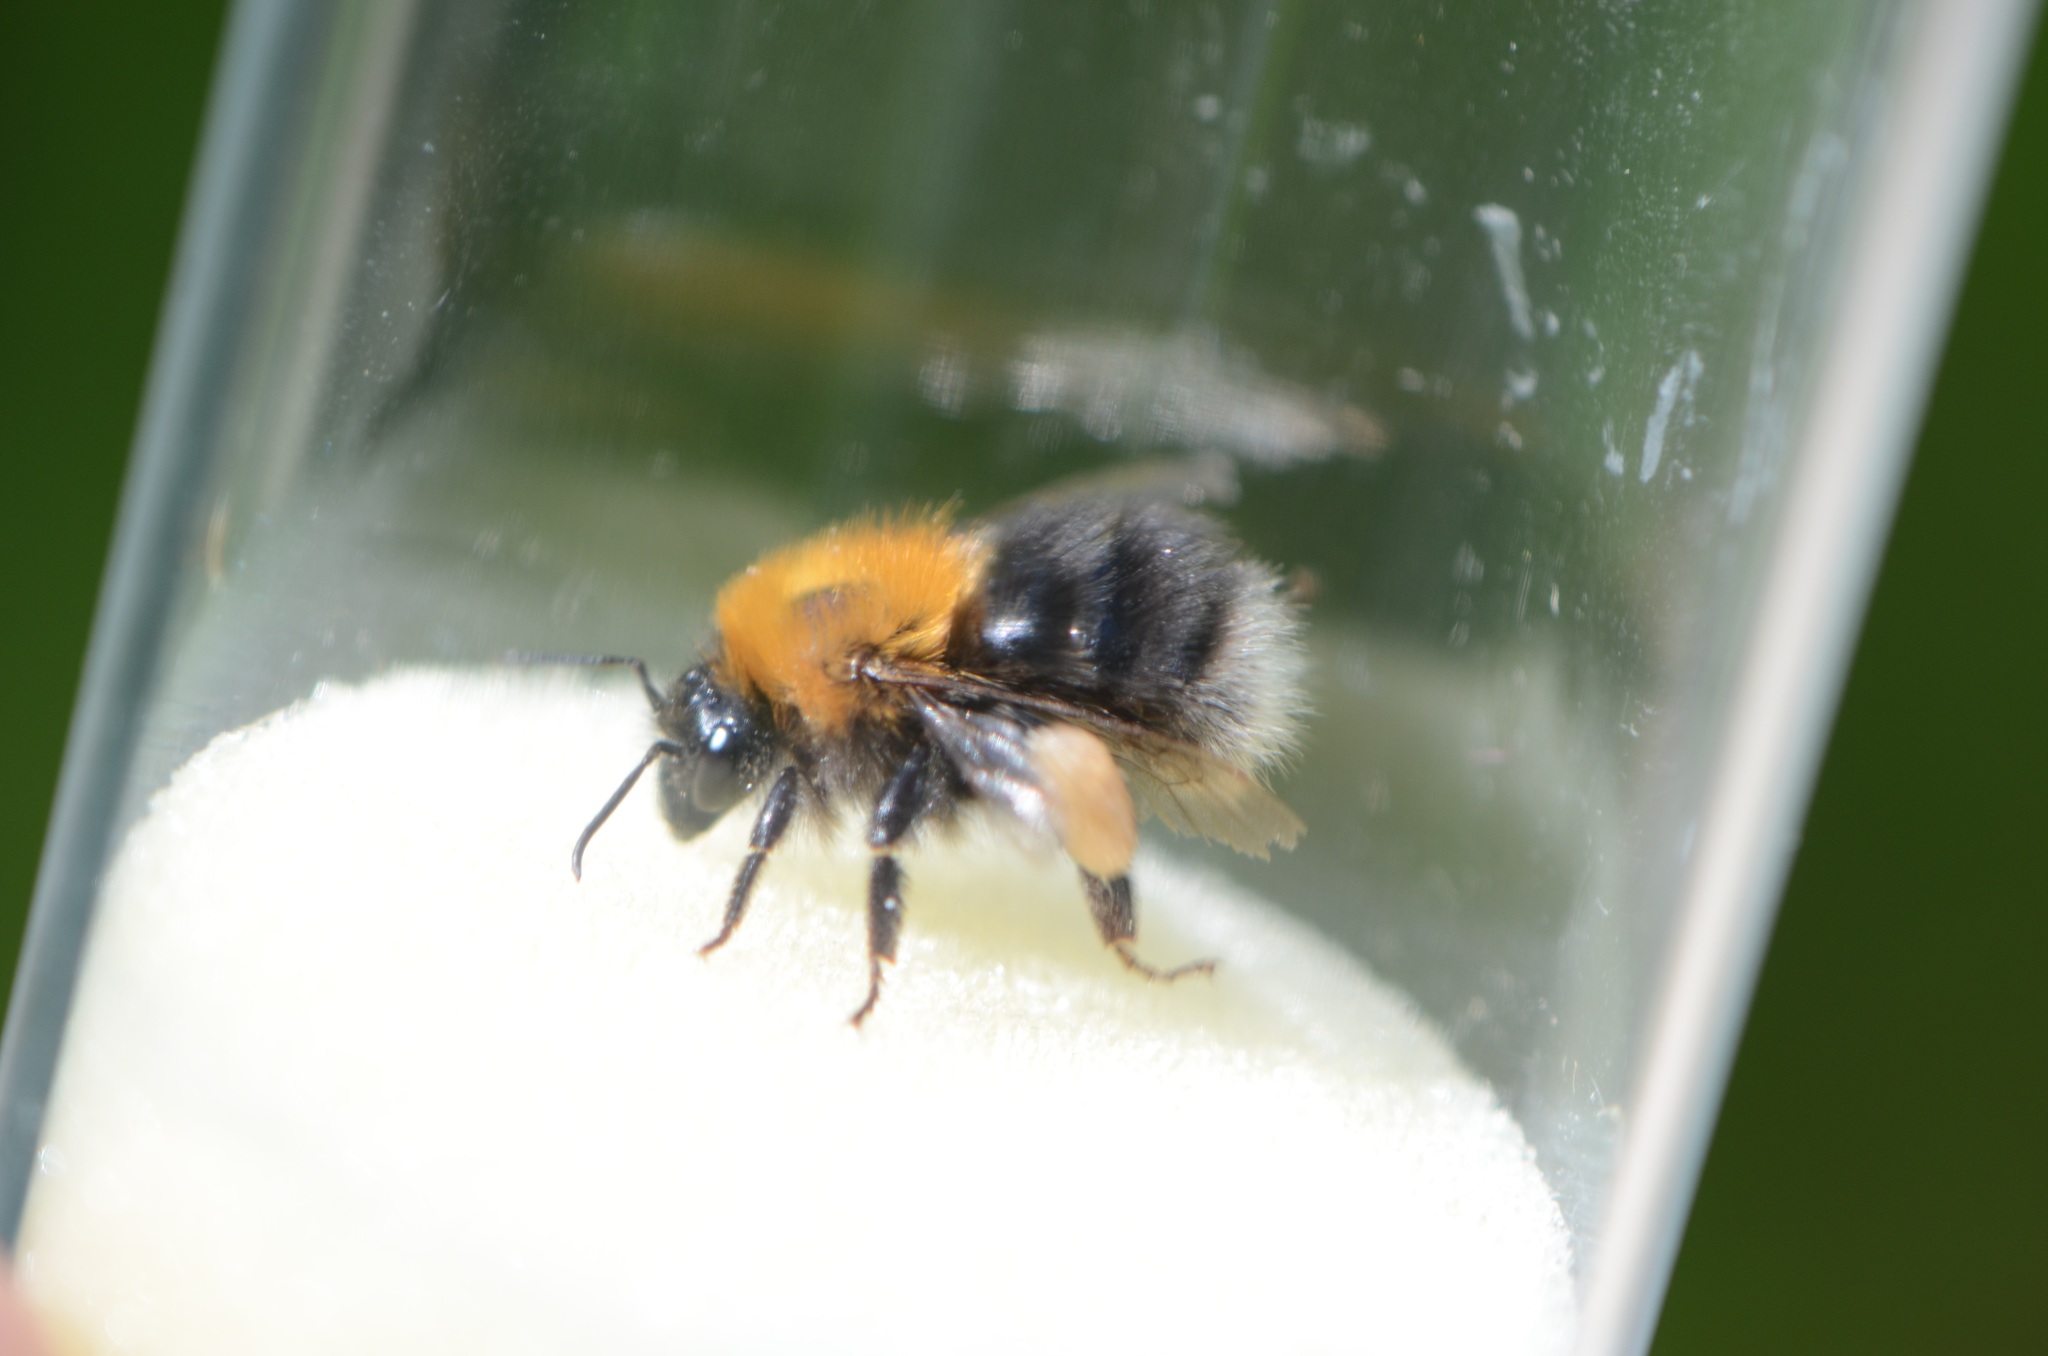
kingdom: Animalia
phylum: Arthropoda
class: Insecta
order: Hymenoptera
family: Apidae
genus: Bombus
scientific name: Bombus hypnorum
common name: New garden bumblebee
